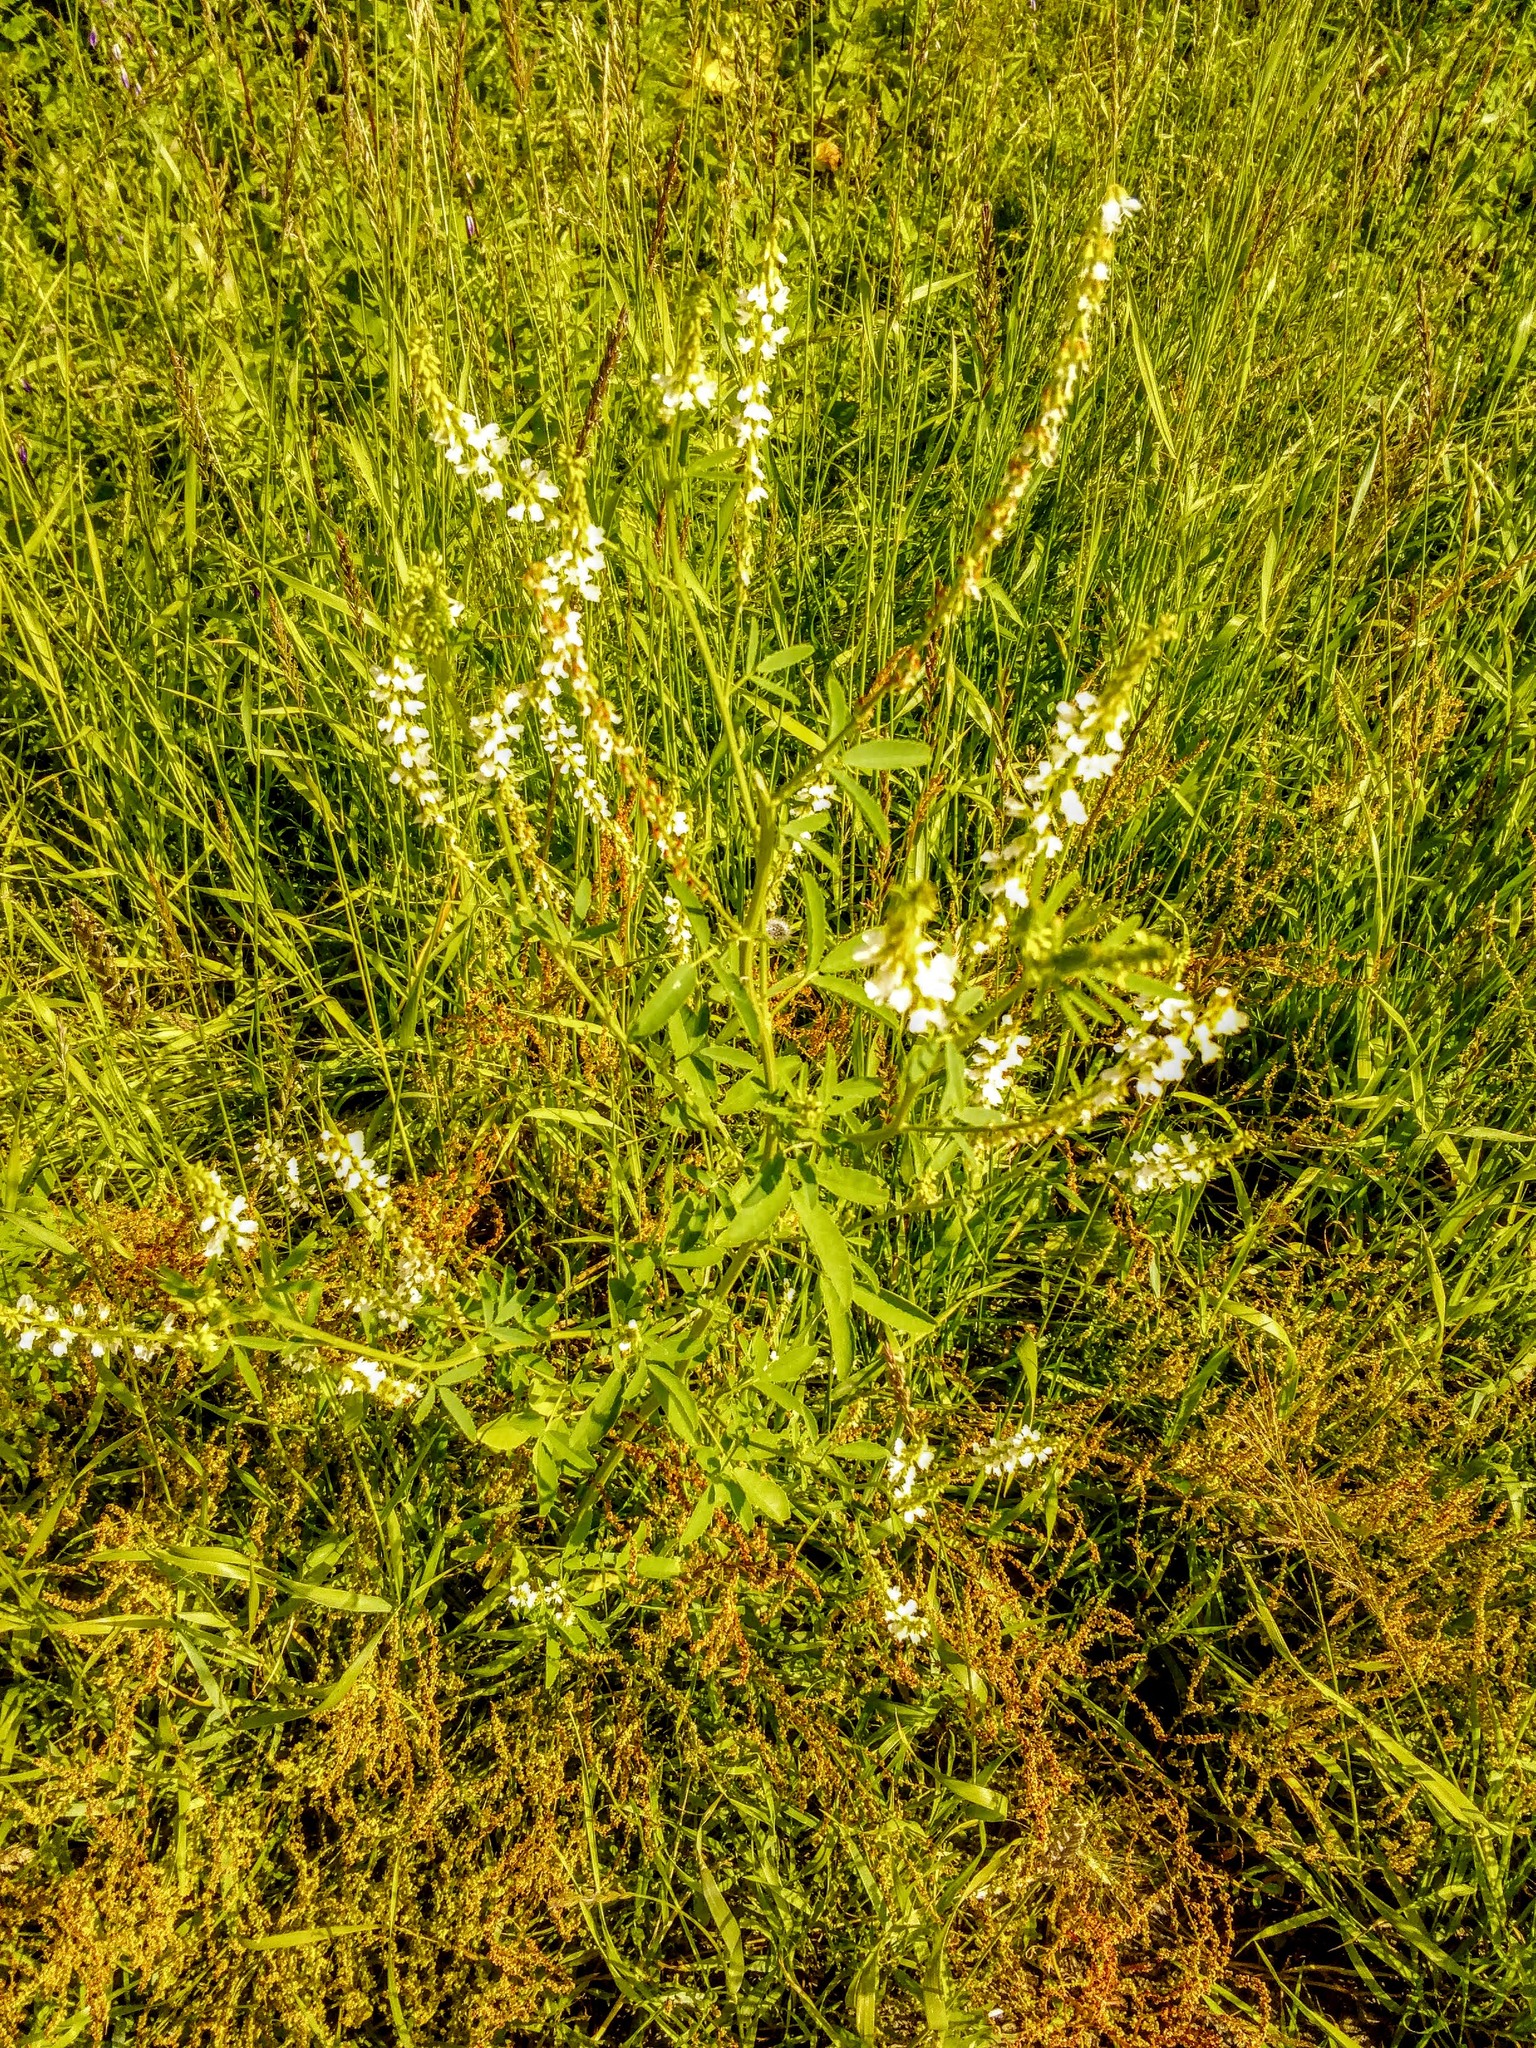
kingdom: Plantae
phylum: Tracheophyta
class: Magnoliopsida
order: Fabales
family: Fabaceae
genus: Melilotus
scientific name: Melilotus albus
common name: White melilot
